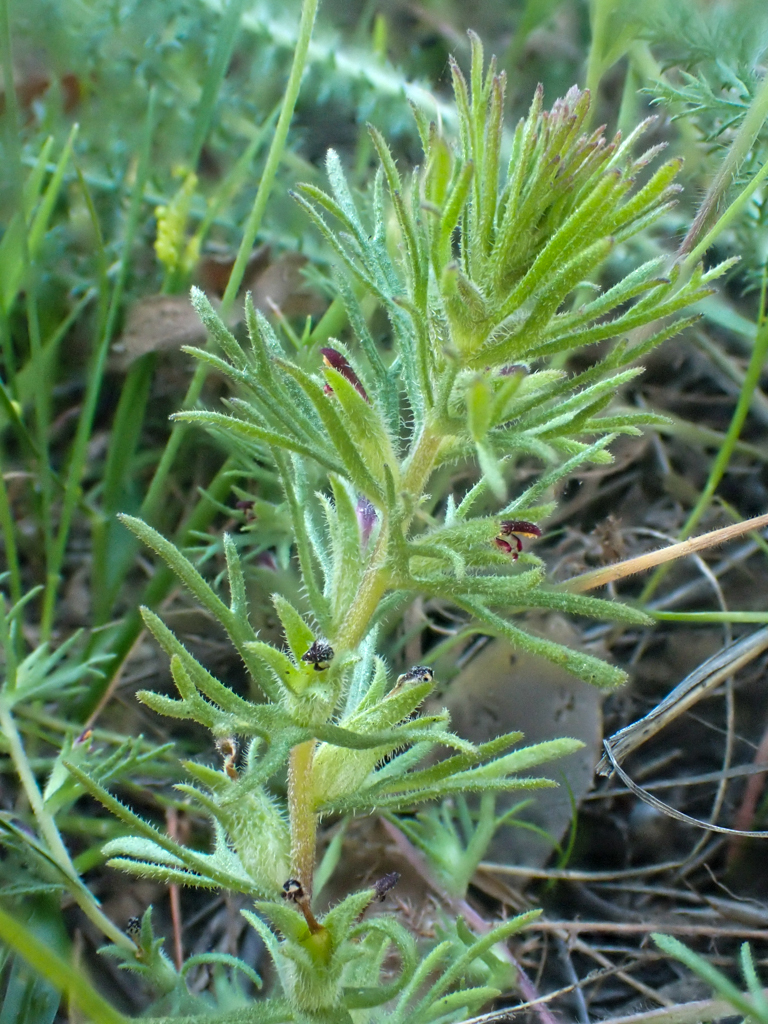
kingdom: Plantae
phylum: Tracheophyta
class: Magnoliopsida
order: Lamiales
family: Orobanchaceae
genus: Triphysaria
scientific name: Triphysaria pusilla
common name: Dwarf false owl-clover
